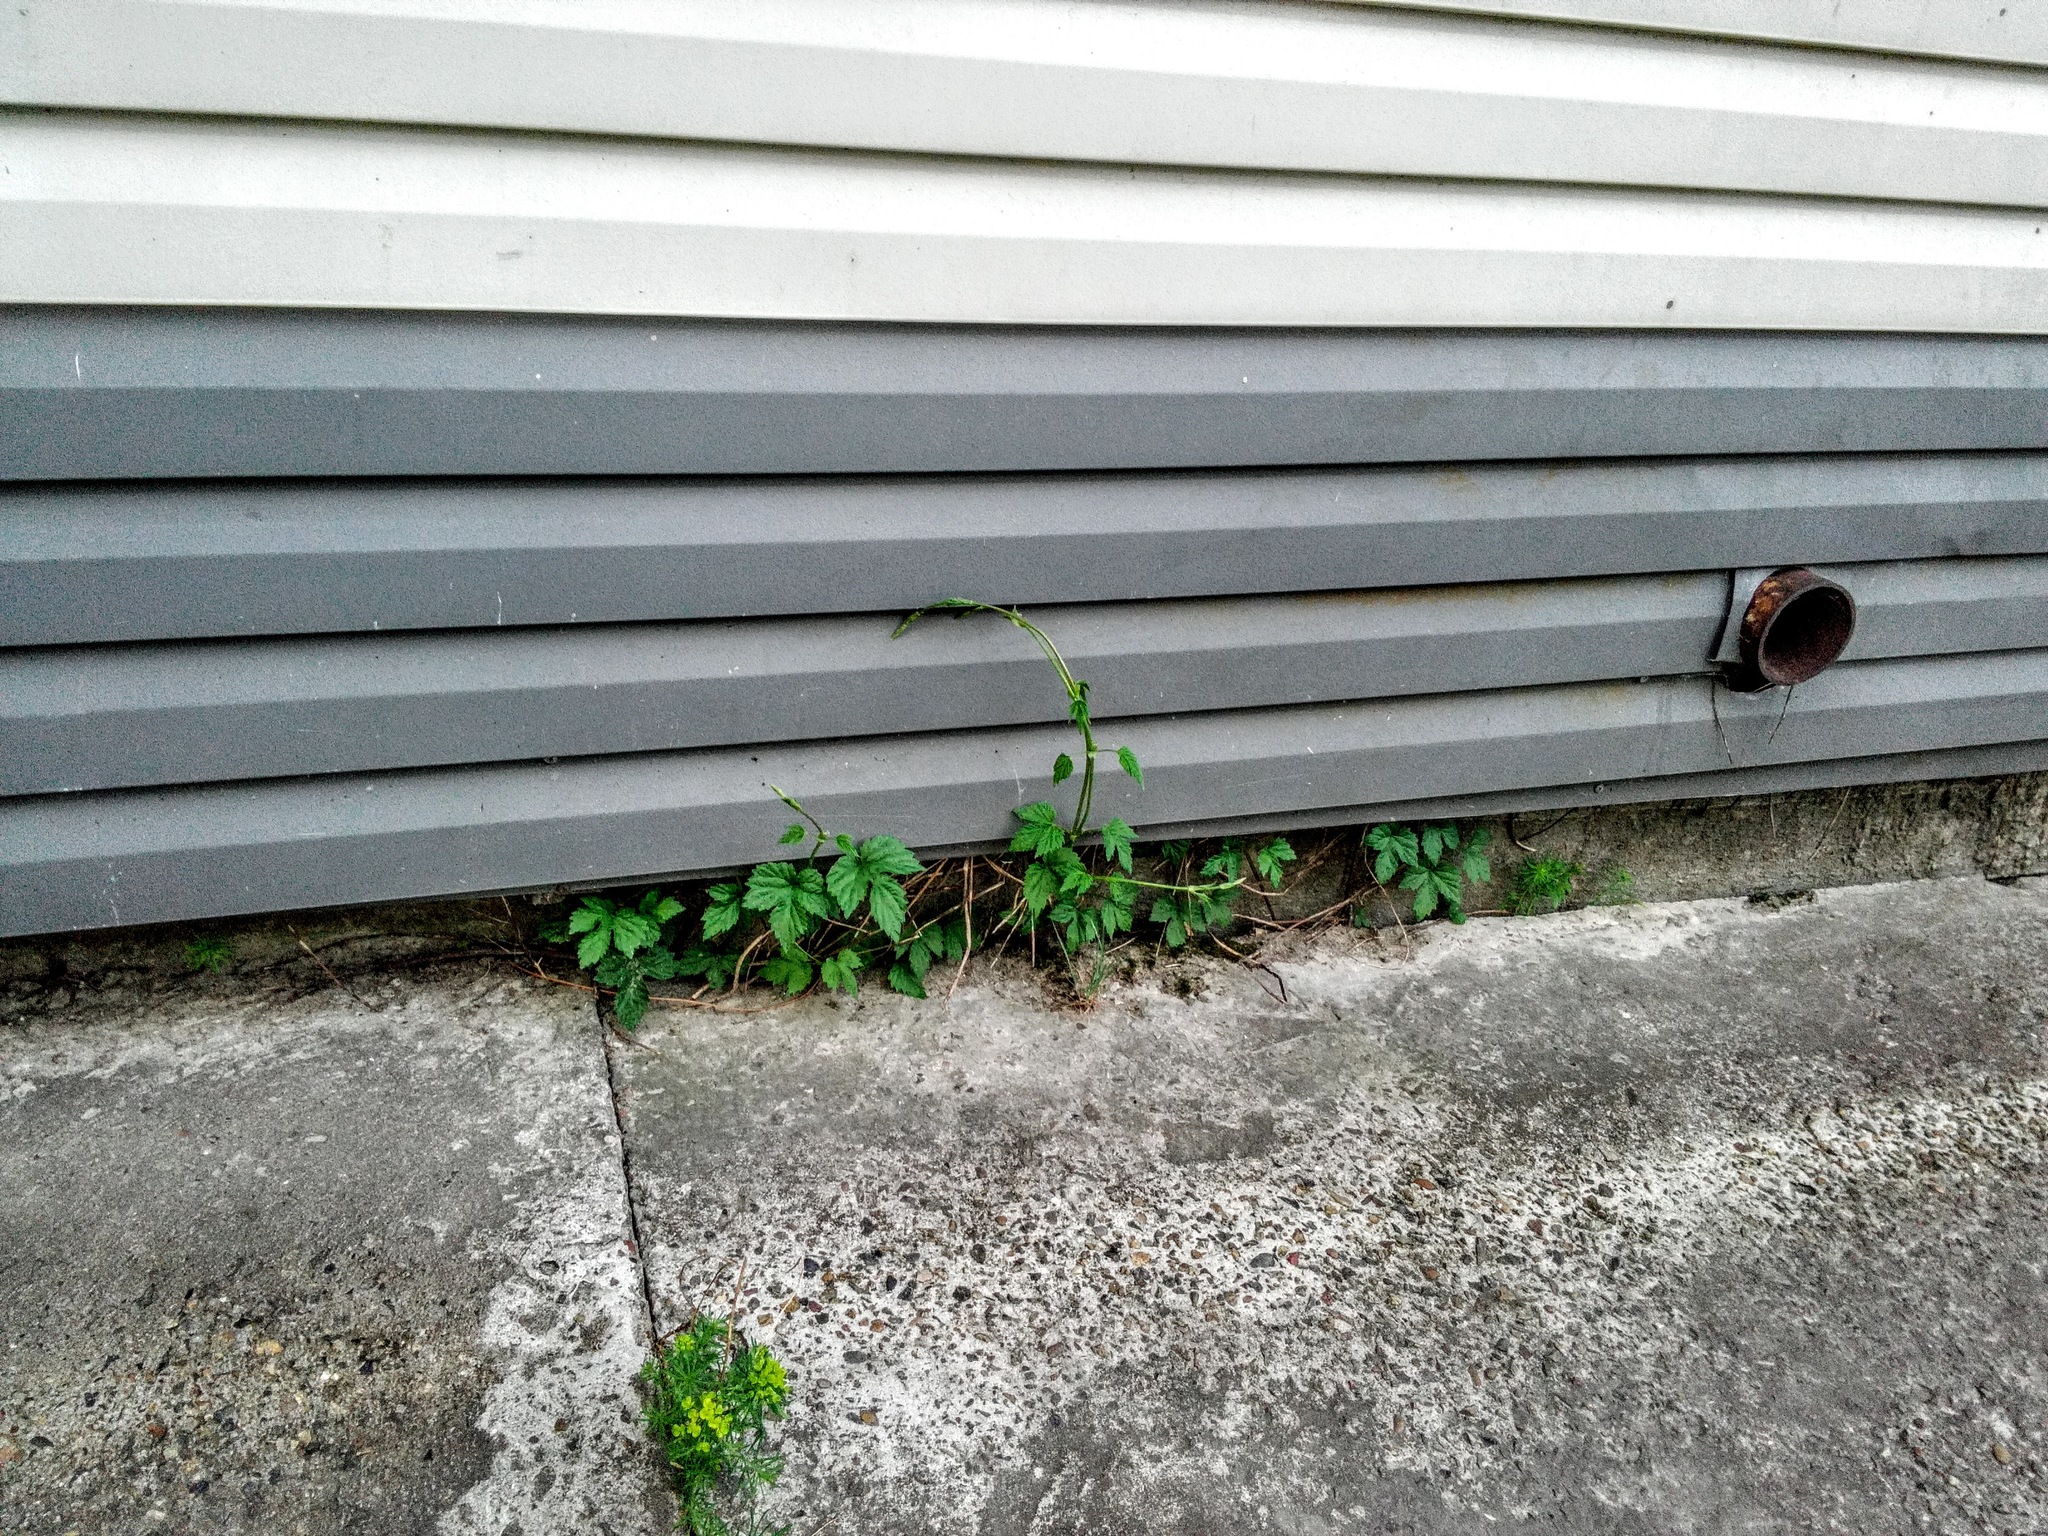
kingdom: Plantae
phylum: Tracheophyta
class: Magnoliopsida
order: Rosales
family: Cannabaceae
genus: Humulus
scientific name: Humulus lupulus
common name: Hop
